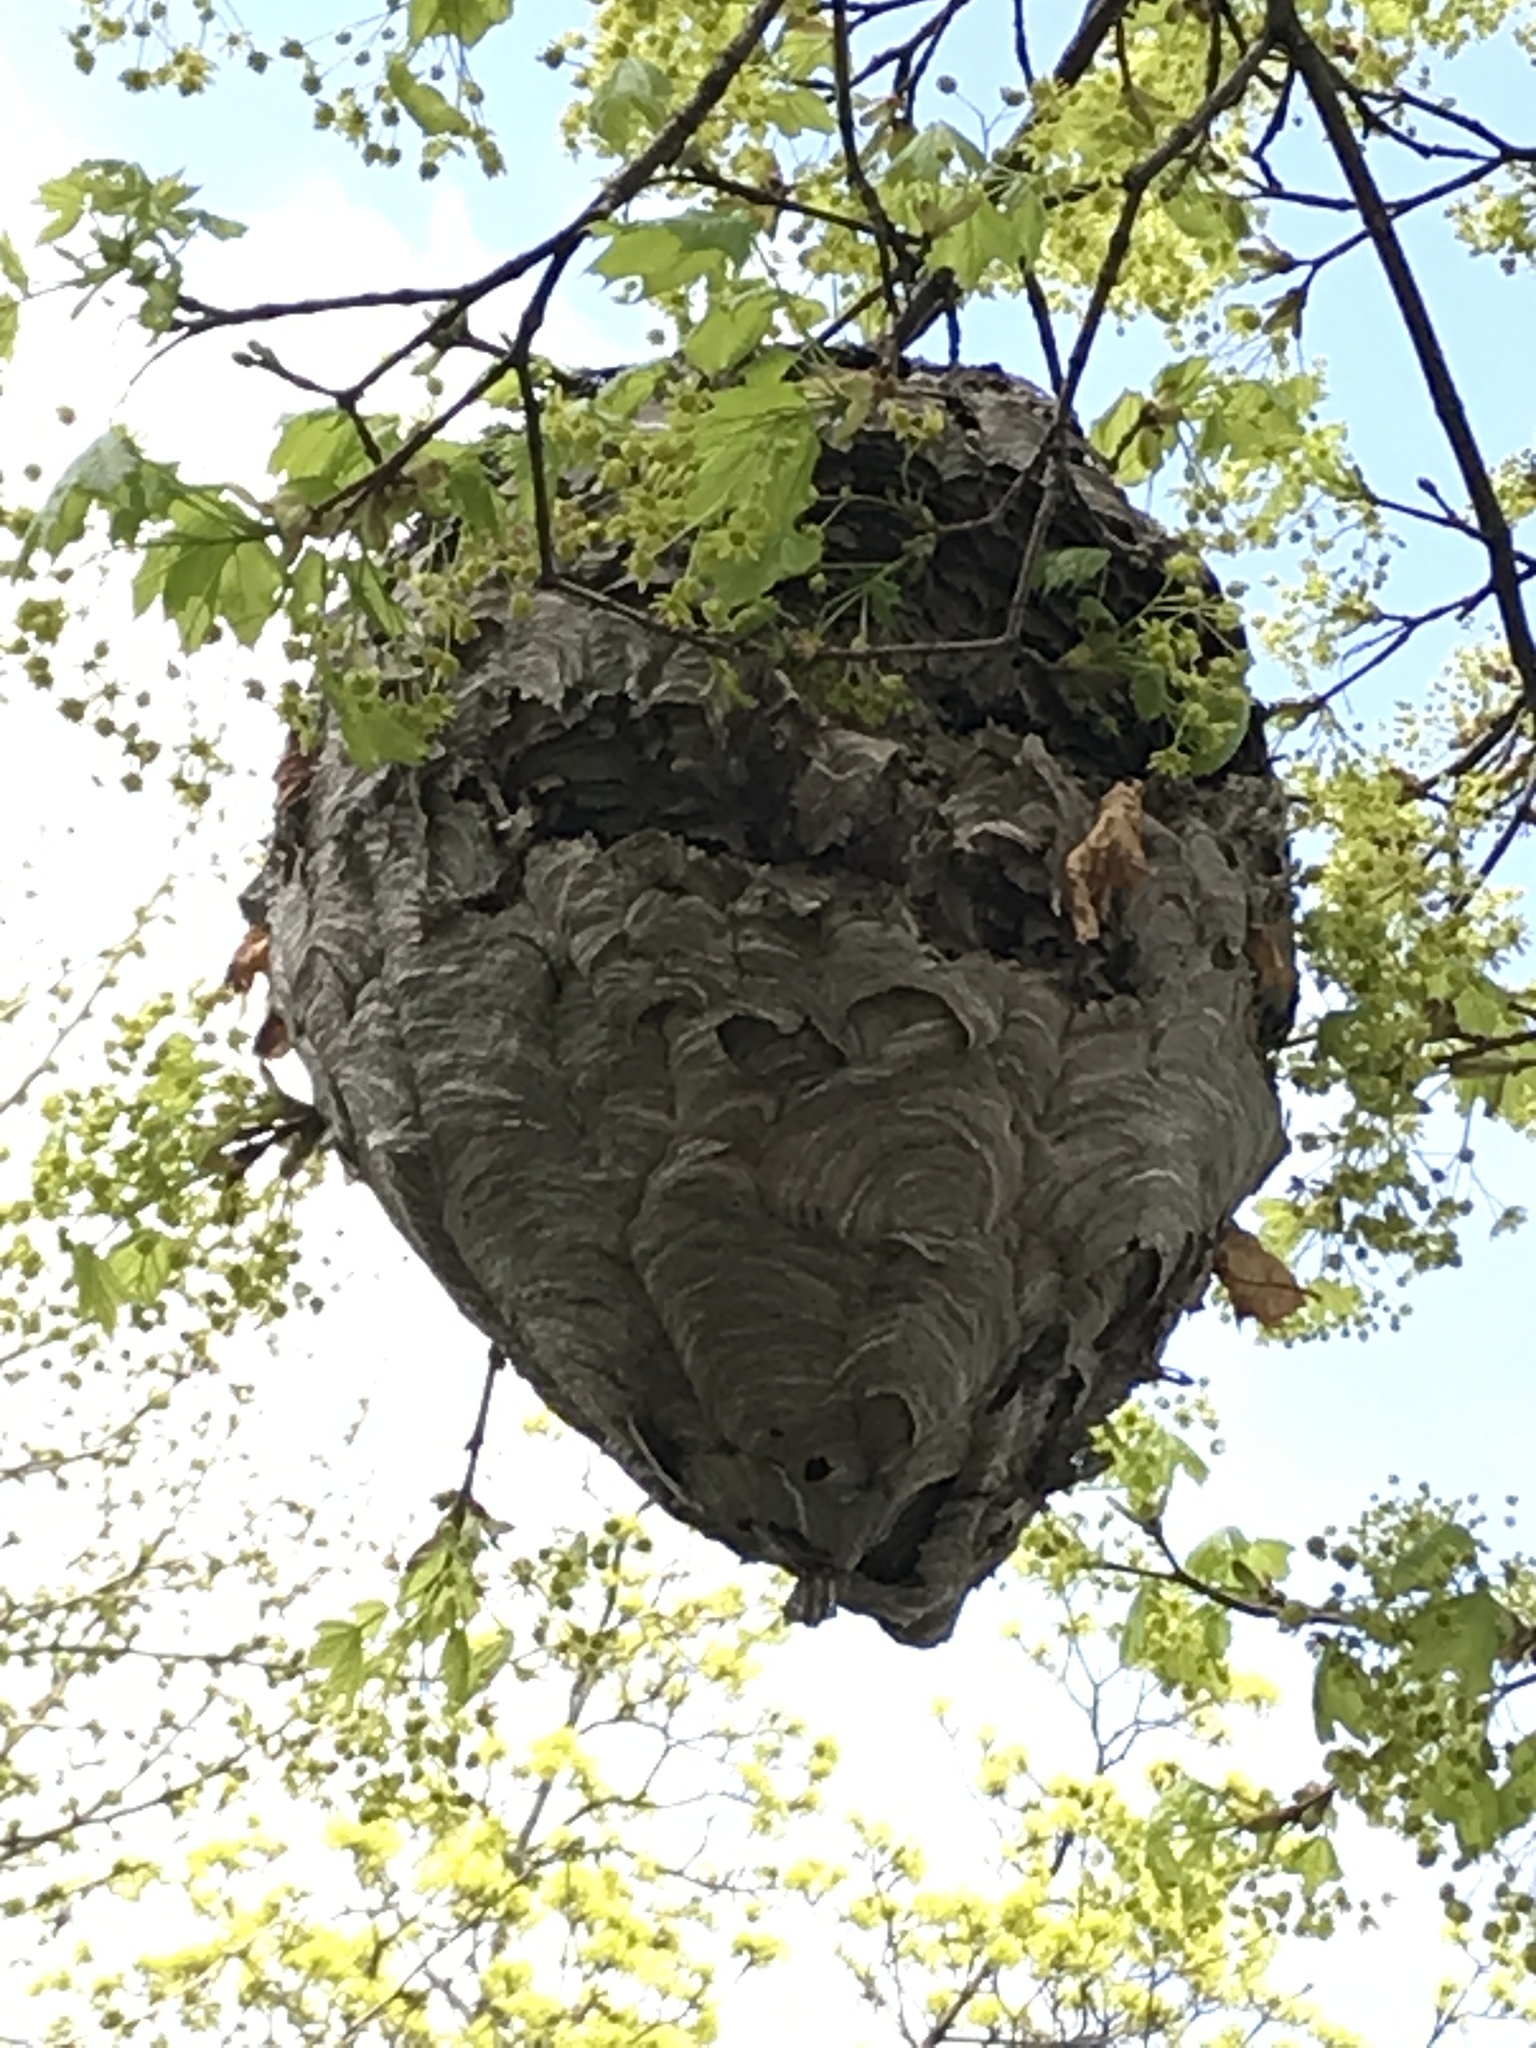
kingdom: Animalia
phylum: Arthropoda
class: Insecta
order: Hymenoptera
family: Vespidae
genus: Dolichovespula
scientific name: Dolichovespula maculata
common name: Bald-faced hornet
